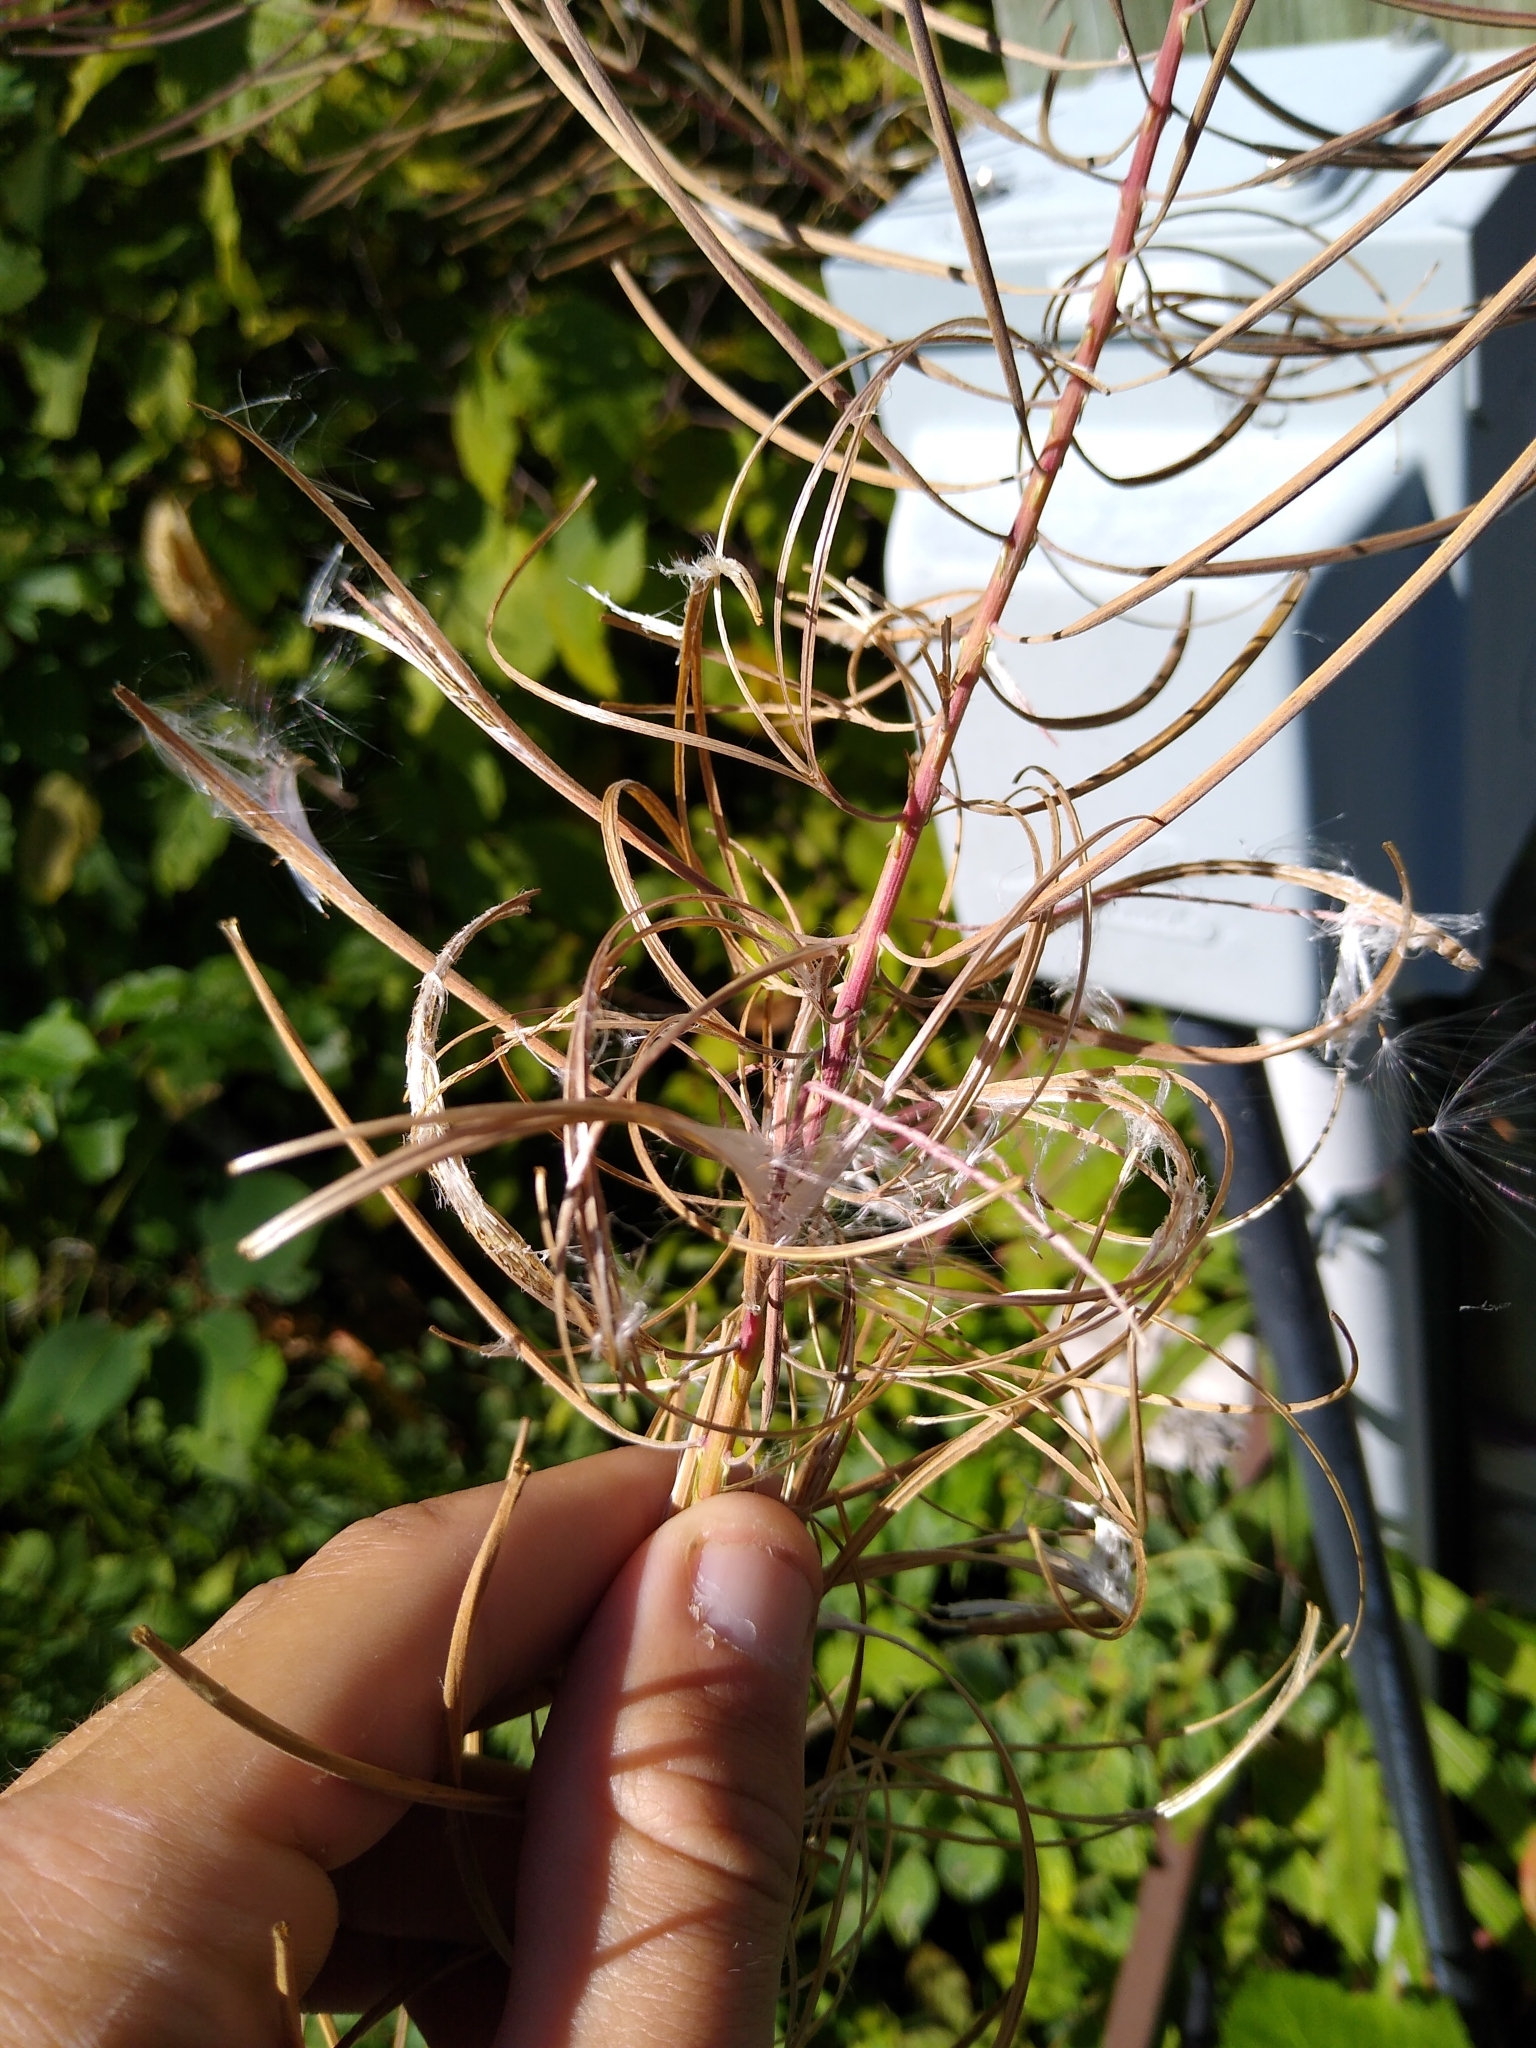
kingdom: Plantae
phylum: Tracheophyta
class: Magnoliopsida
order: Myrtales
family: Onagraceae
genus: Chamaenerion
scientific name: Chamaenerion angustifolium
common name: Fireweed
